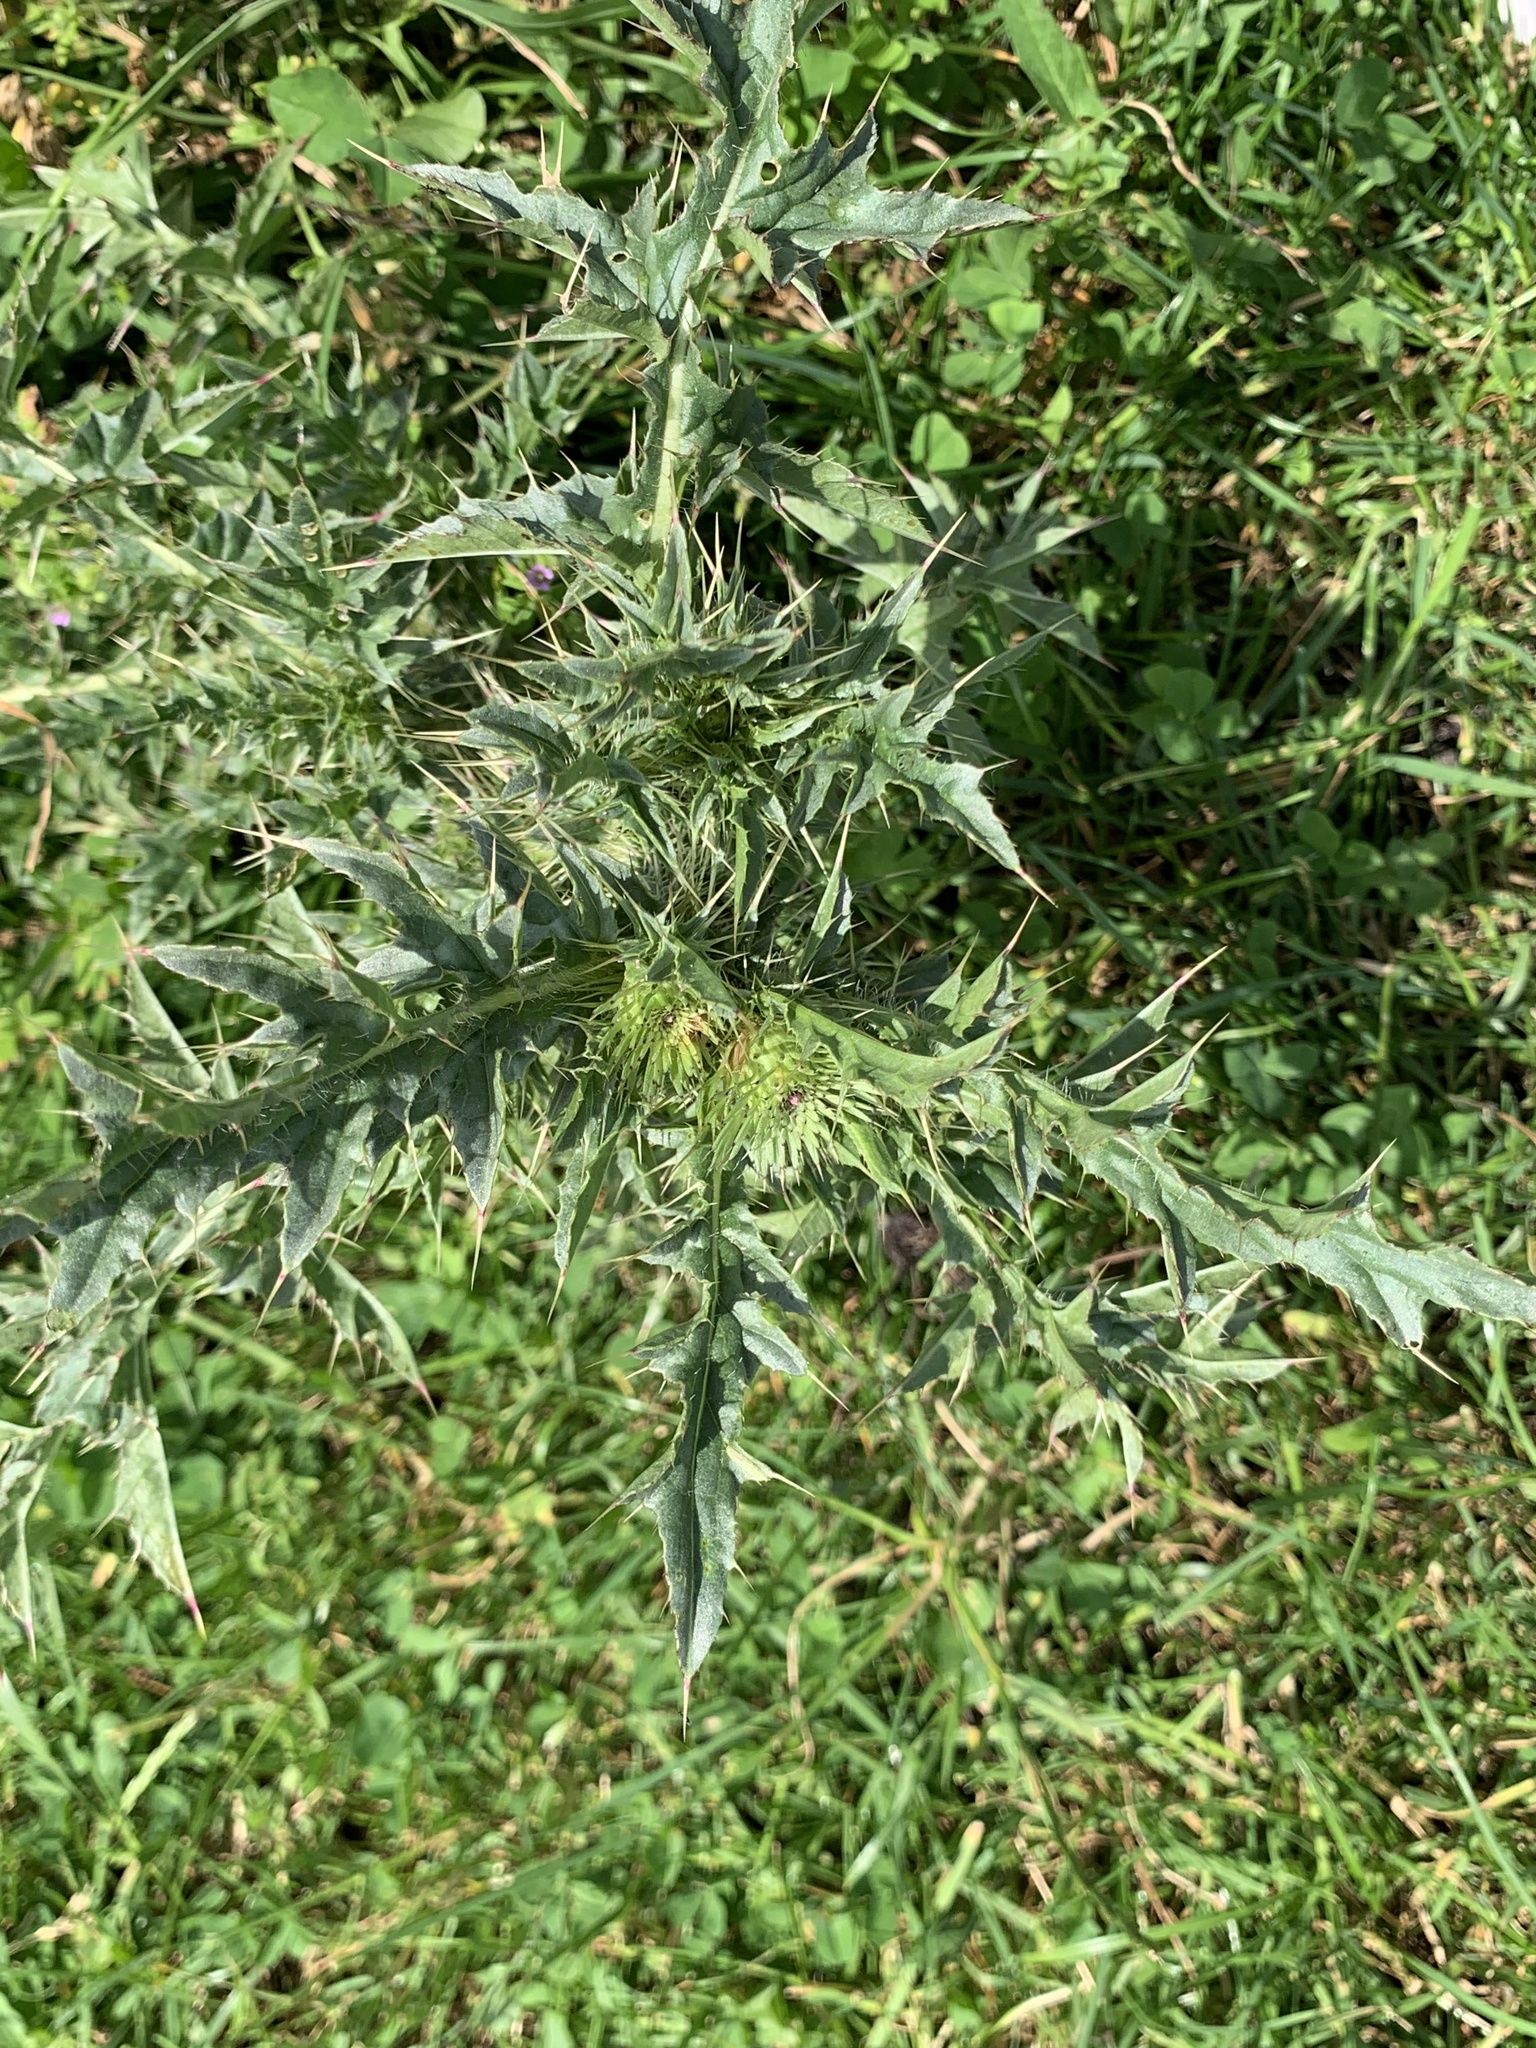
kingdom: Plantae
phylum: Tracheophyta
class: Magnoliopsida
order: Asterales
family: Asteraceae
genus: Carduus
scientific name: Carduus acanthoides
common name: Plumeless thistle
